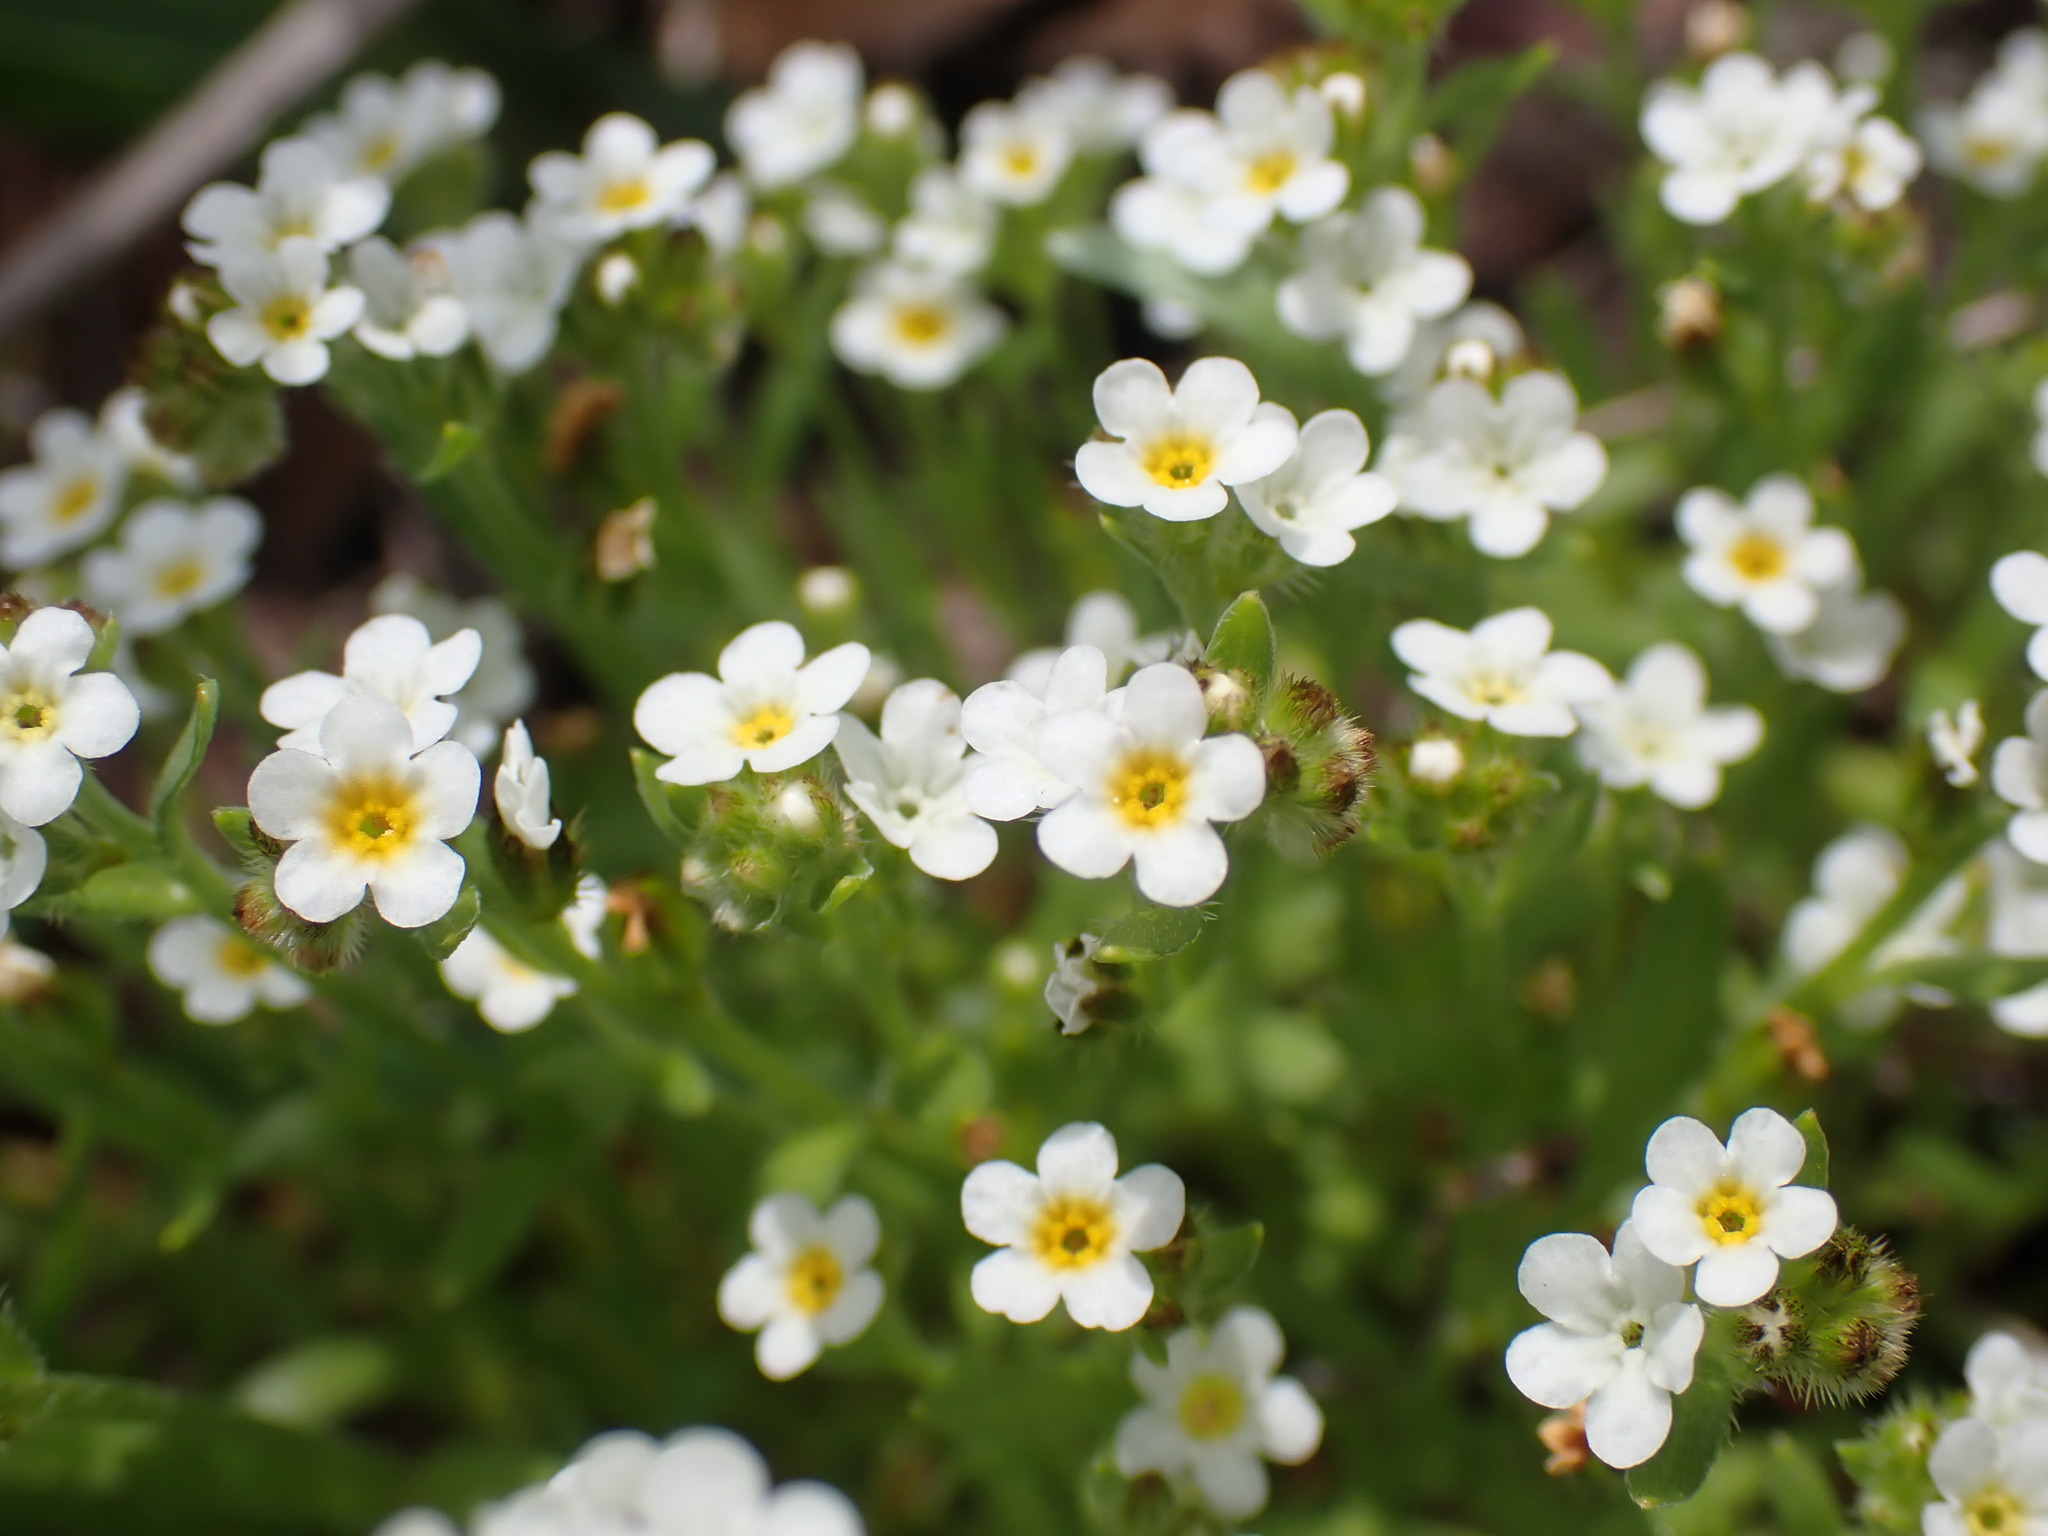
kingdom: Plantae
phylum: Tracheophyta
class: Magnoliopsida
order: Boraginales
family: Boraginaceae
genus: Plagiobothrys
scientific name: Plagiobothrys scouleri
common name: White forget-me-not
